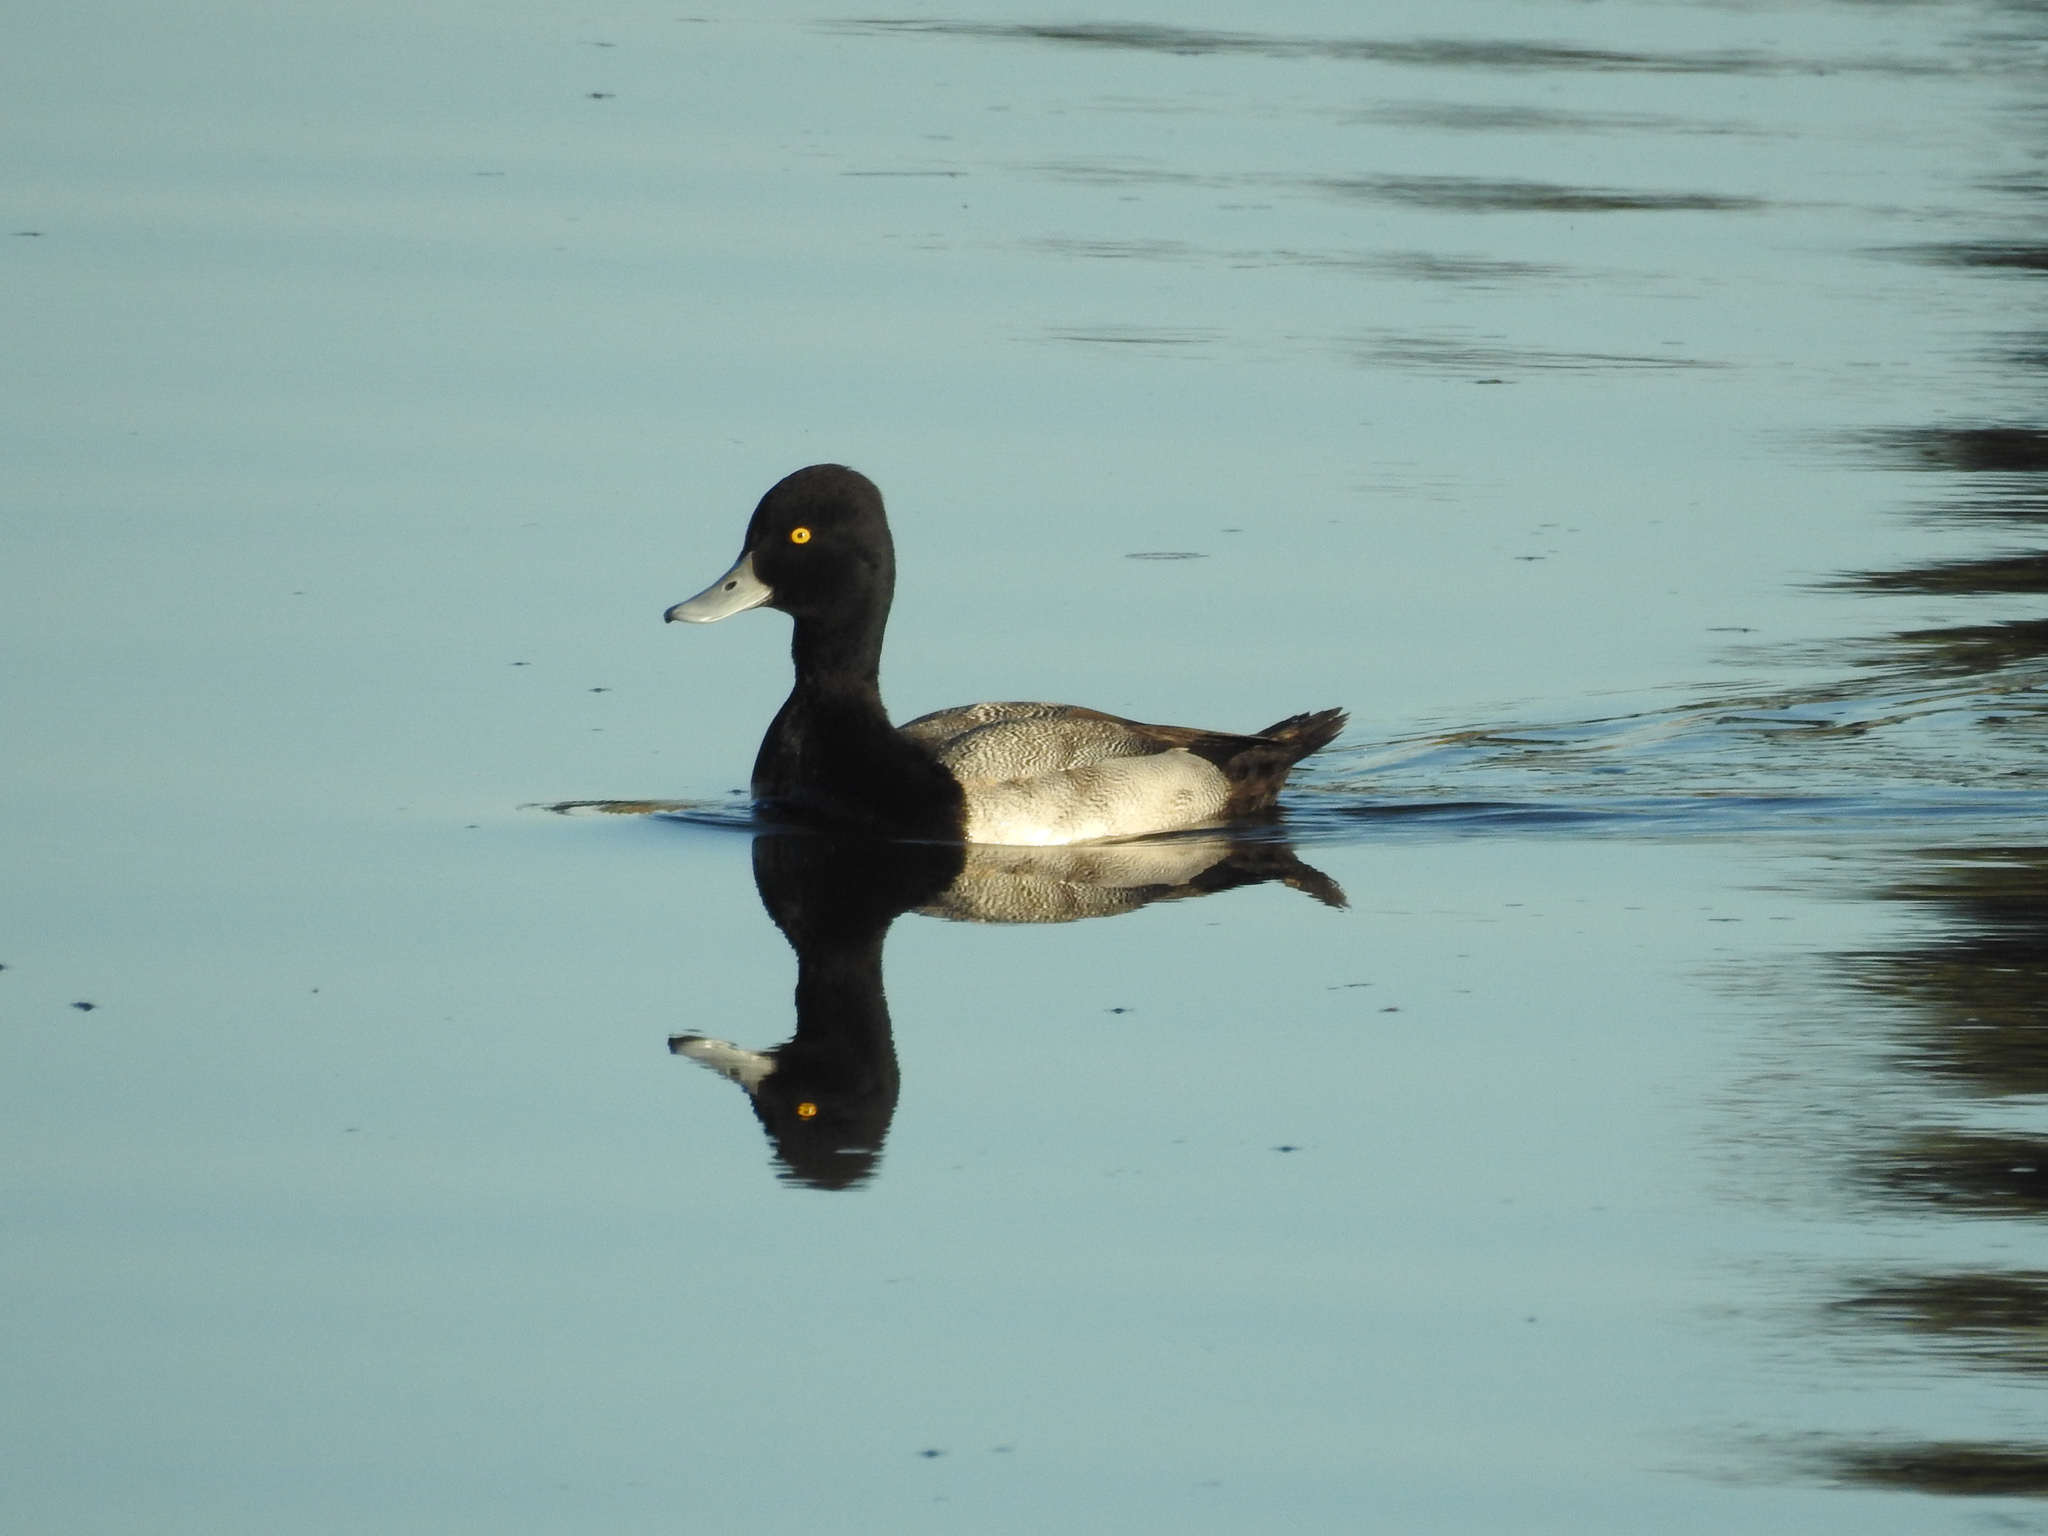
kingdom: Animalia
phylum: Chordata
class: Aves
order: Anseriformes
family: Anatidae
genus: Aythya
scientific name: Aythya affinis
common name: Lesser scaup
